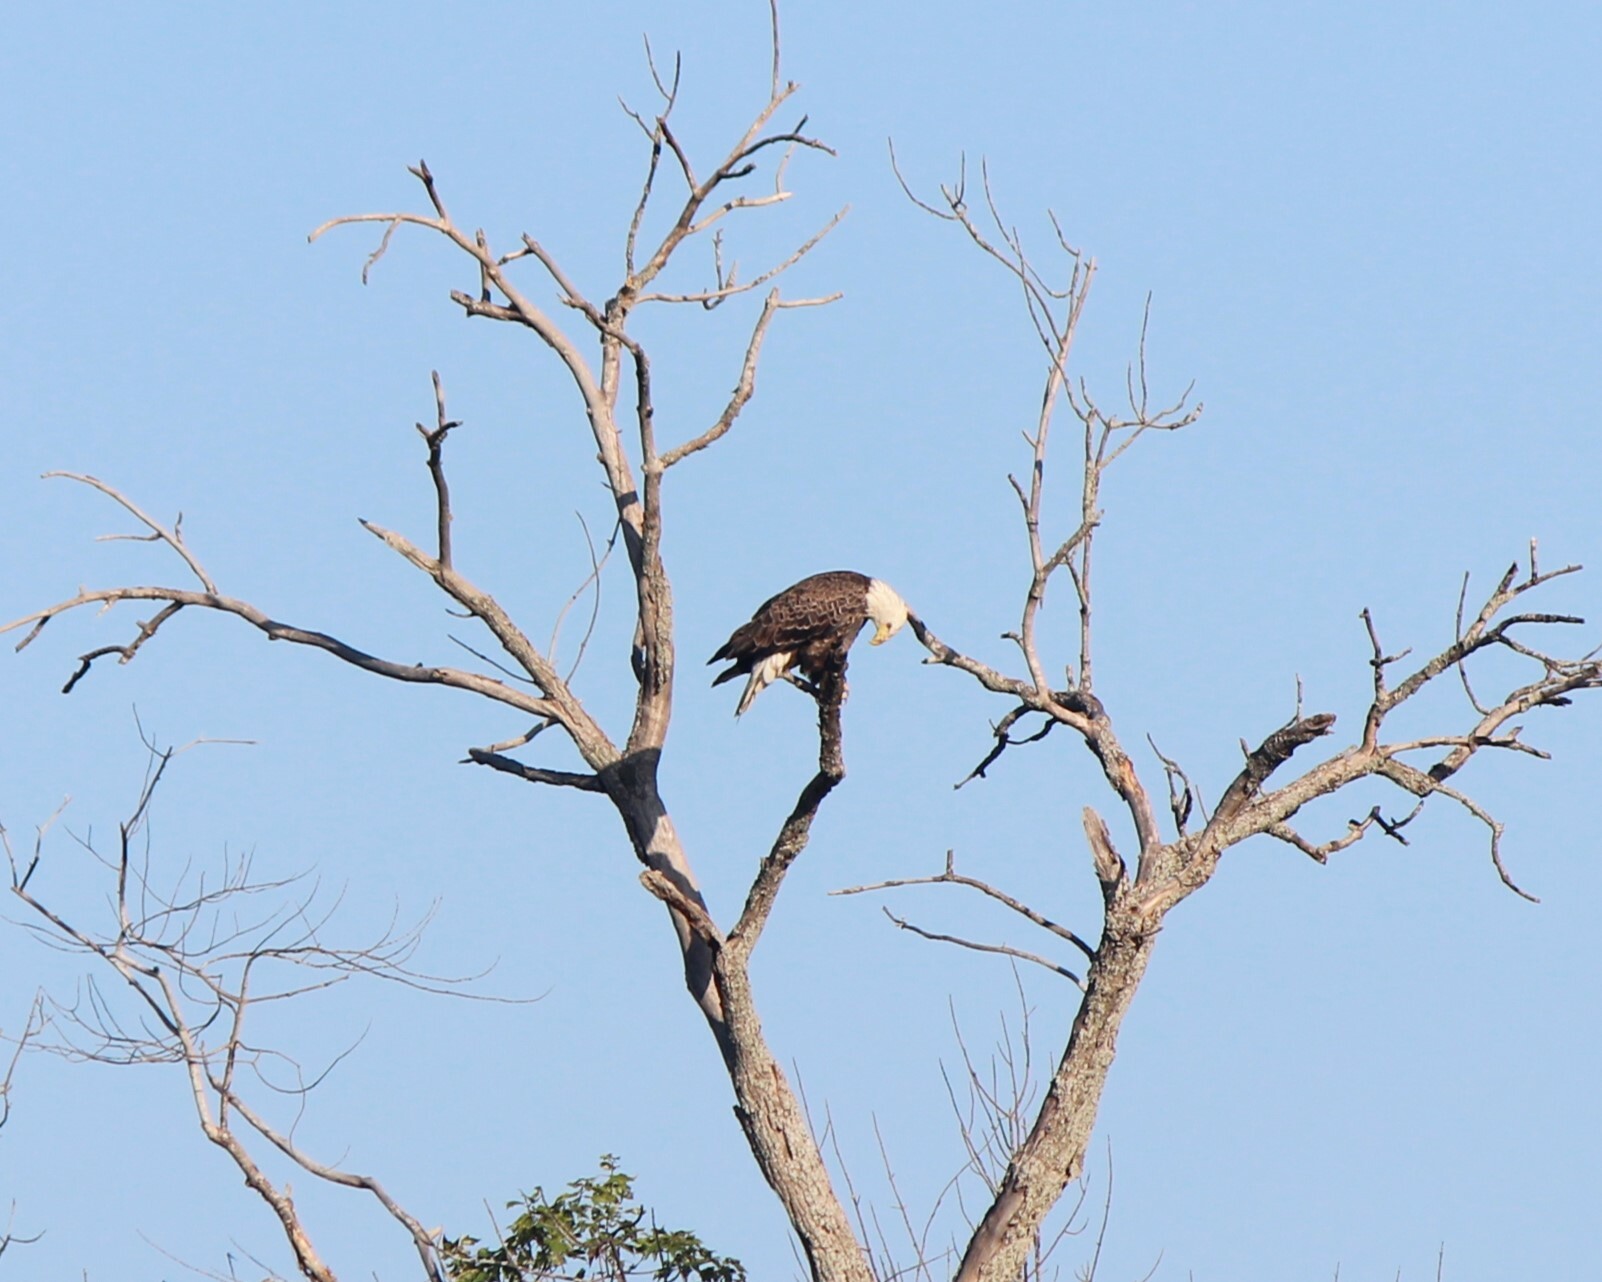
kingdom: Animalia
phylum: Chordata
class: Aves
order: Accipitriformes
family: Accipitridae
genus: Haliaeetus
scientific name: Haliaeetus leucocephalus
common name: Bald eagle
